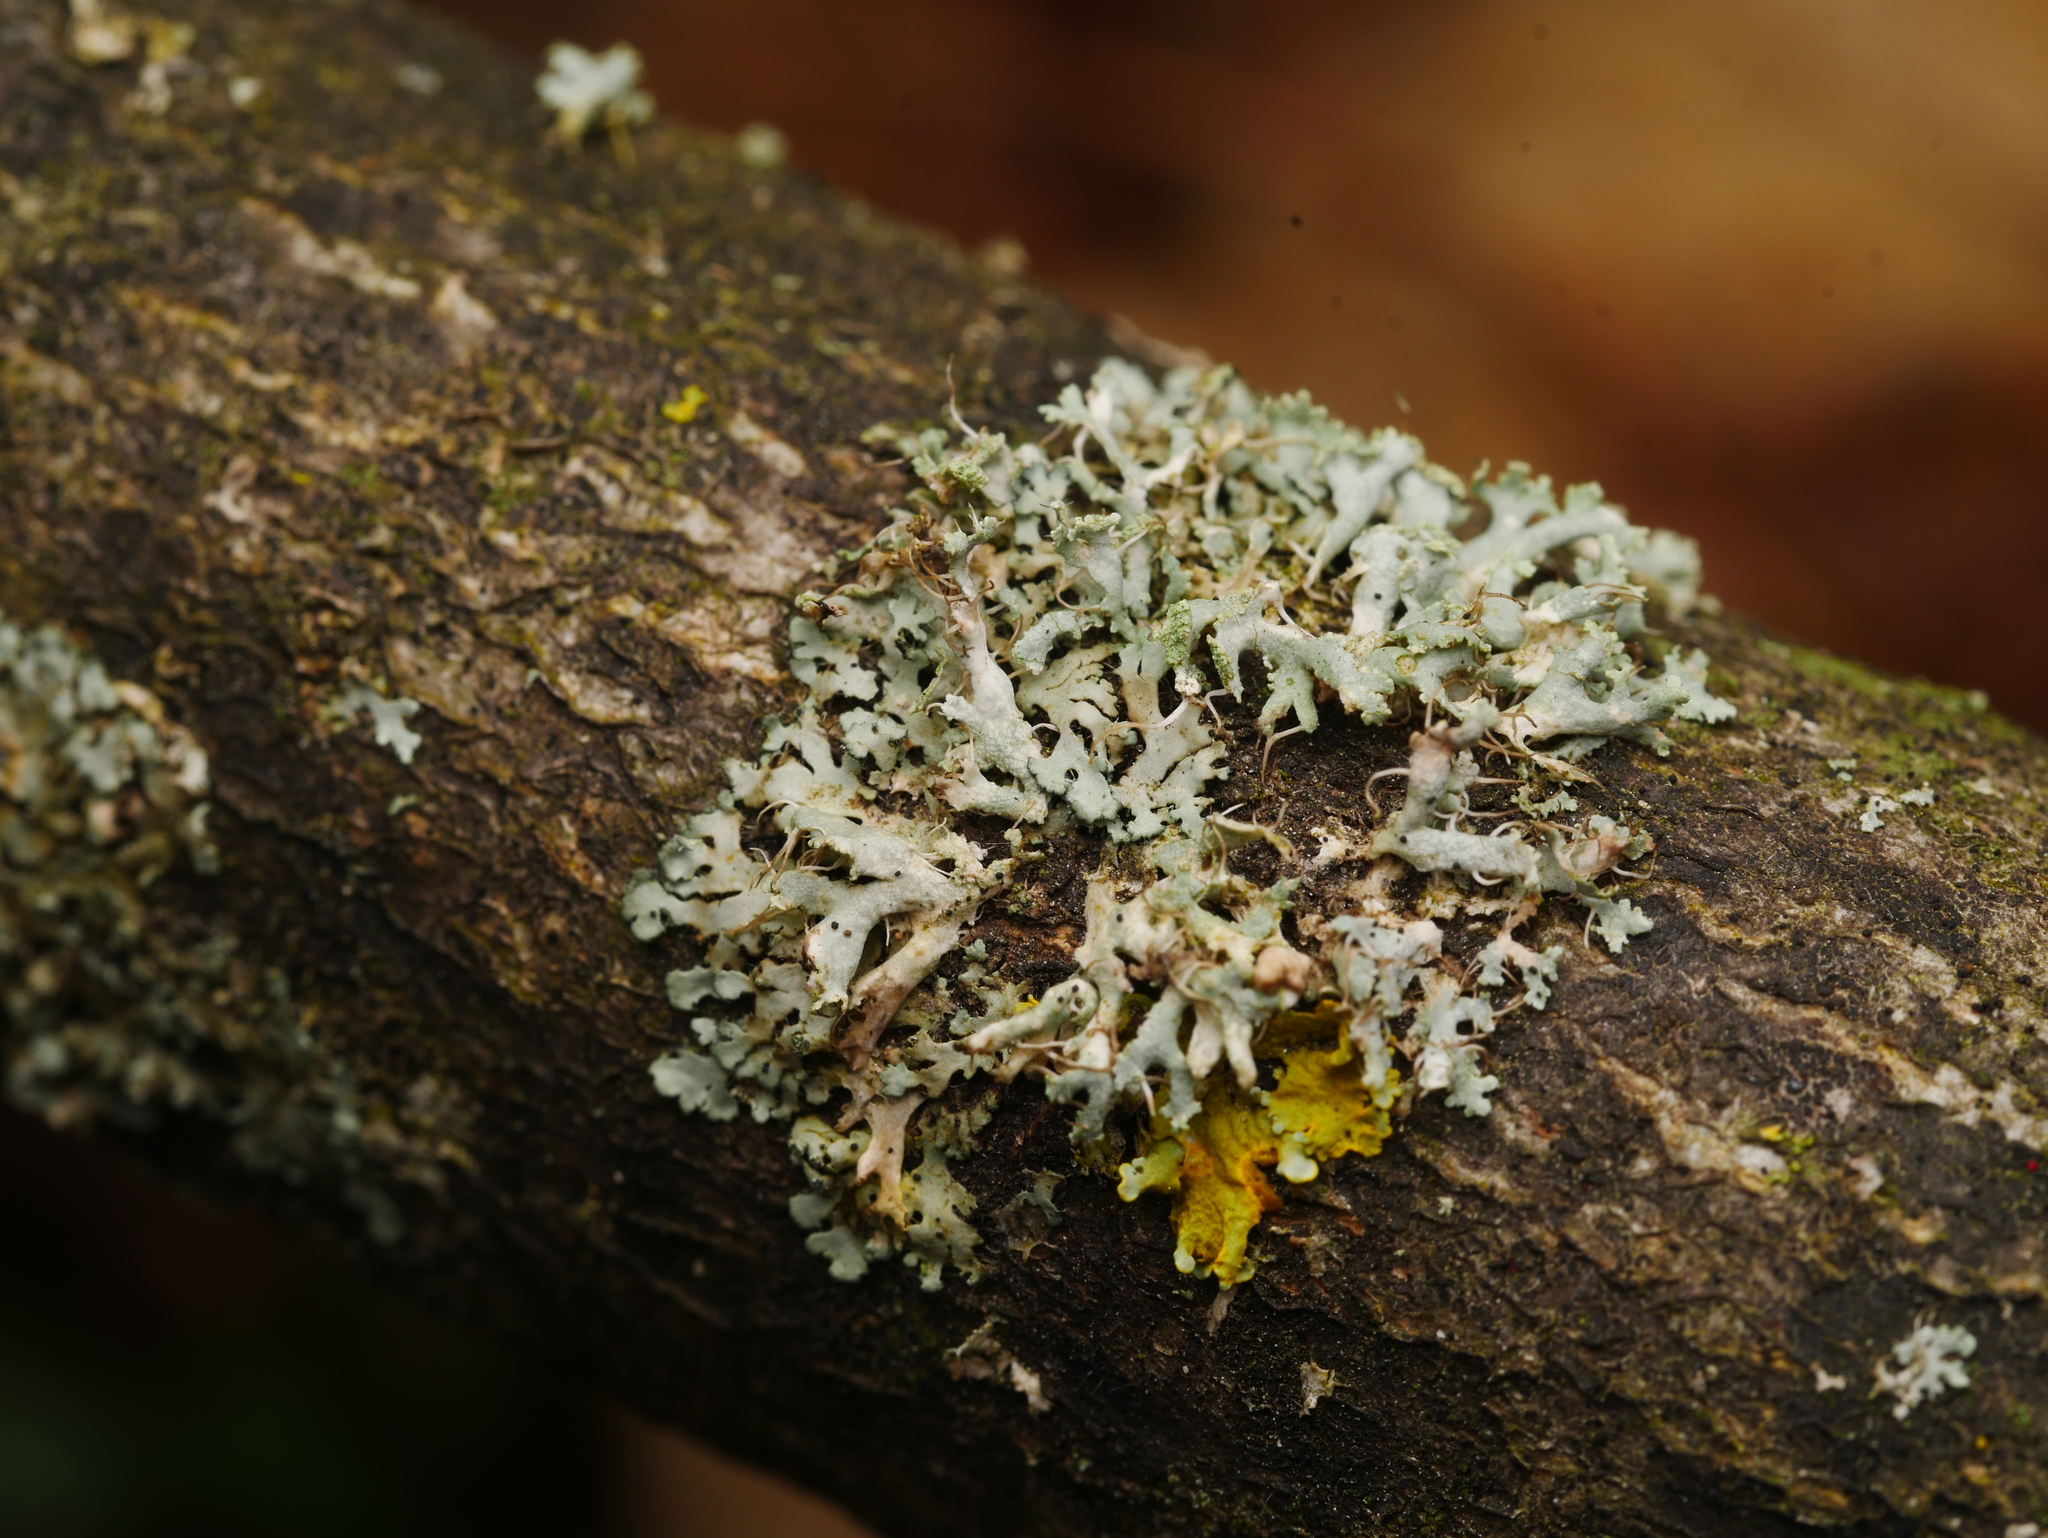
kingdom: Fungi
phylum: Ascomycota
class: Lecanoromycetes
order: Caliciales
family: Physciaceae
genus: Physcia
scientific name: Physcia tenella
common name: Fringed rosette lichen
